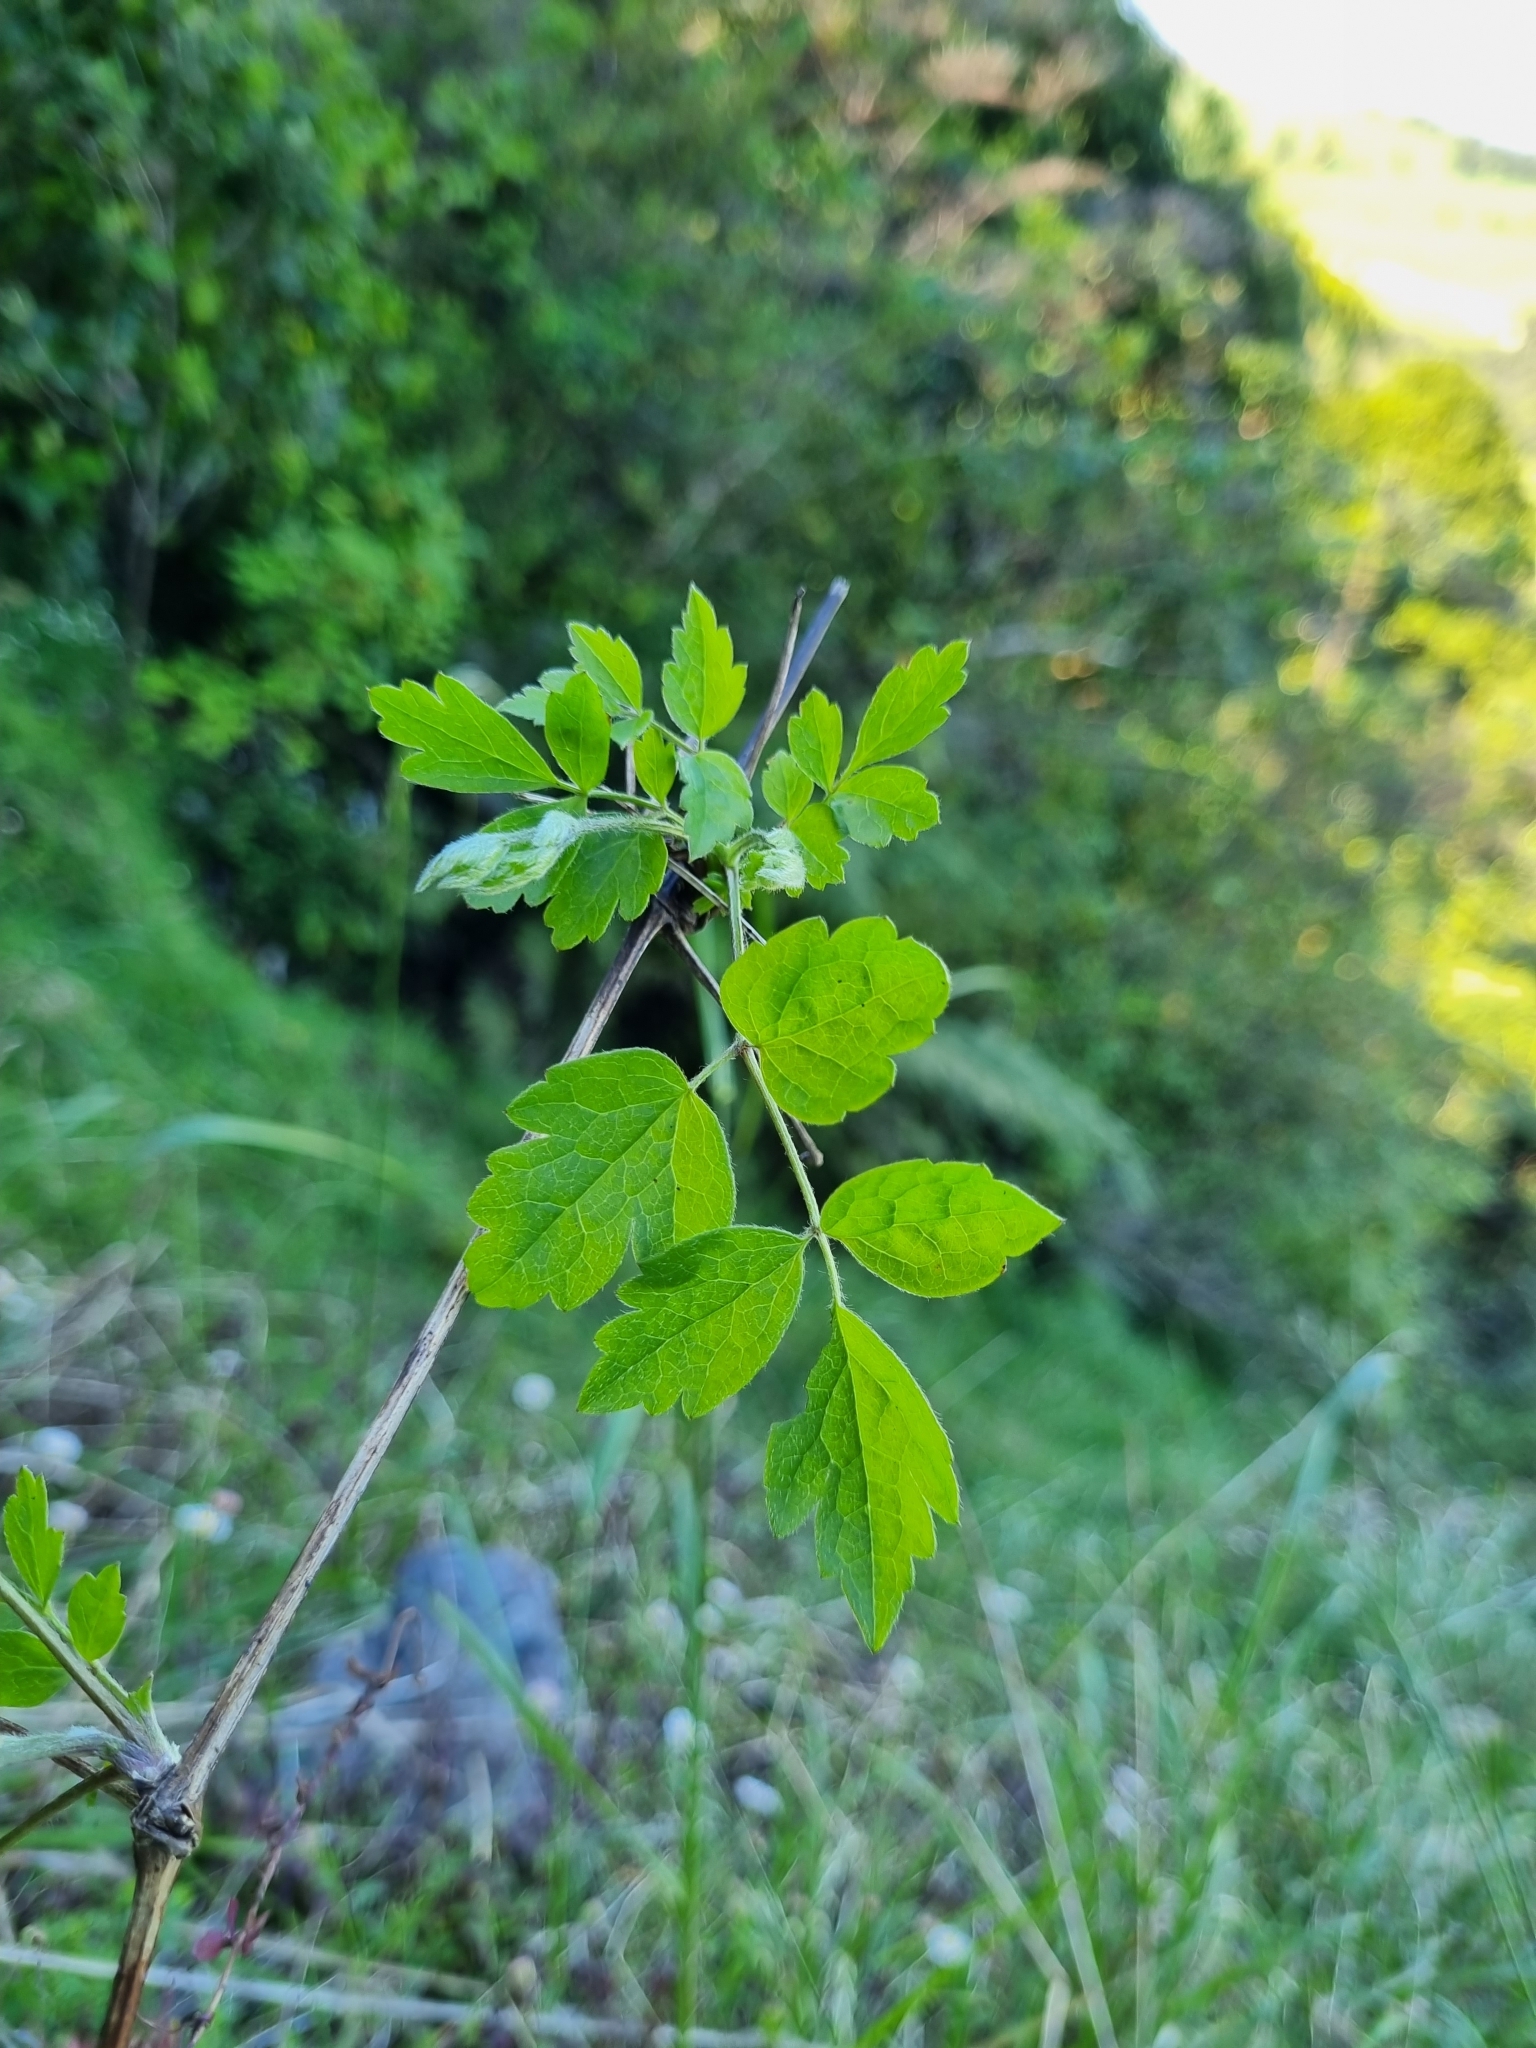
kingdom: Plantae
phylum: Tracheophyta
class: Magnoliopsida
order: Ranunculales
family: Ranunculaceae
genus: Clematis
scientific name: Clematis vitalba
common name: Evergreen clematis
